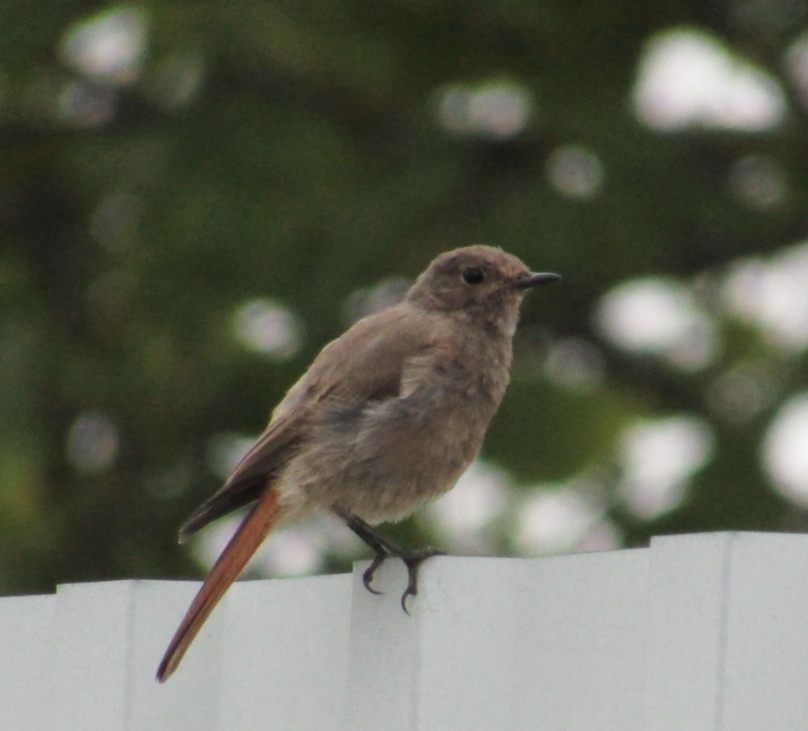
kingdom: Animalia
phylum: Chordata
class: Aves
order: Passeriformes
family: Muscicapidae
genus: Phoenicurus
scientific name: Phoenicurus ochruros
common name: Black redstart
